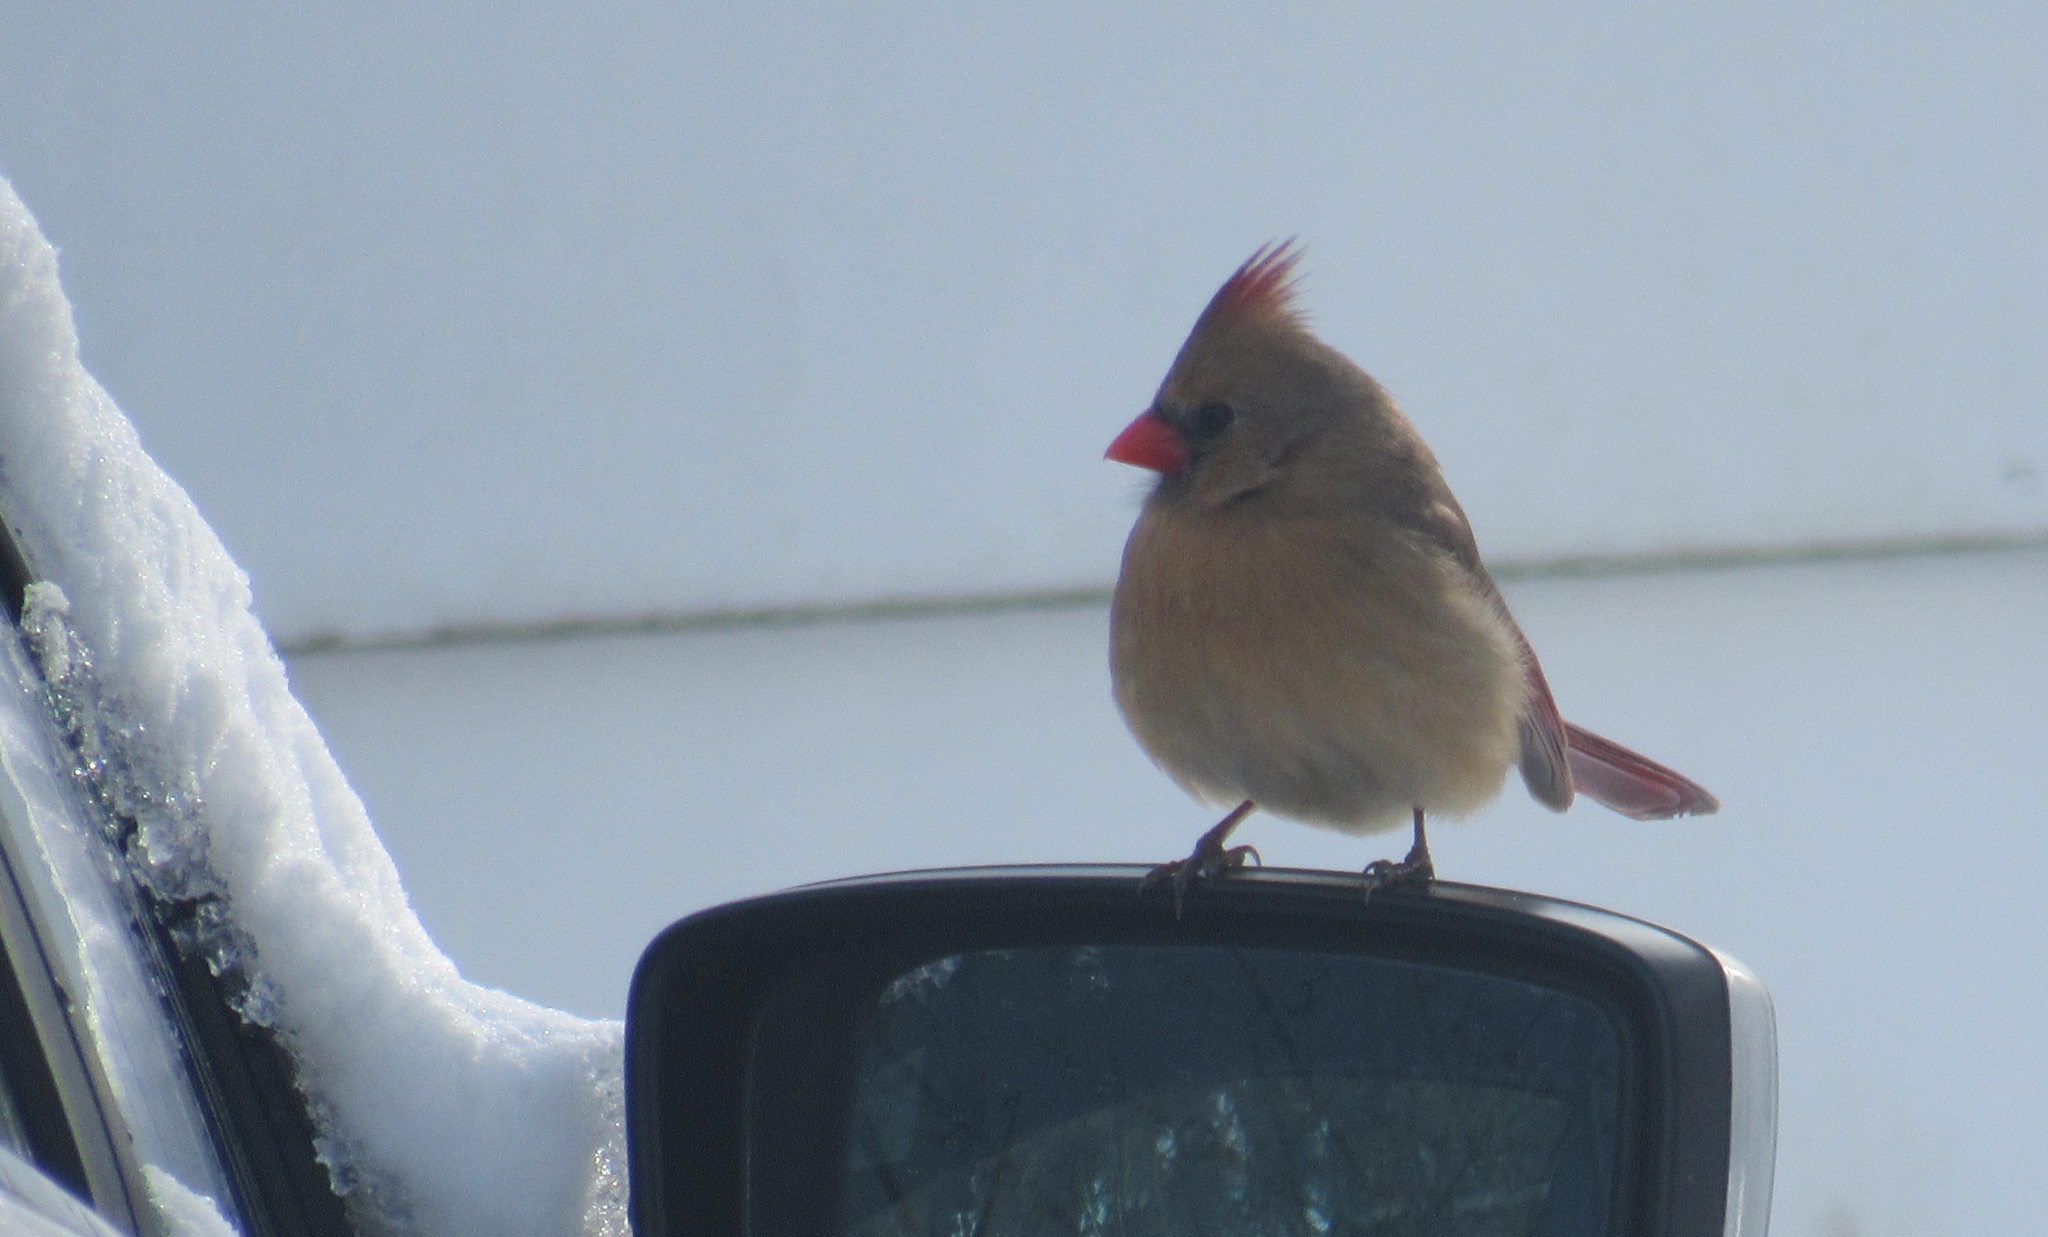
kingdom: Animalia
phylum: Chordata
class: Aves
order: Passeriformes
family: Cardinalidae
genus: Cardinalis
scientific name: Cardinalis cardinalis
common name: Northern cardinal
